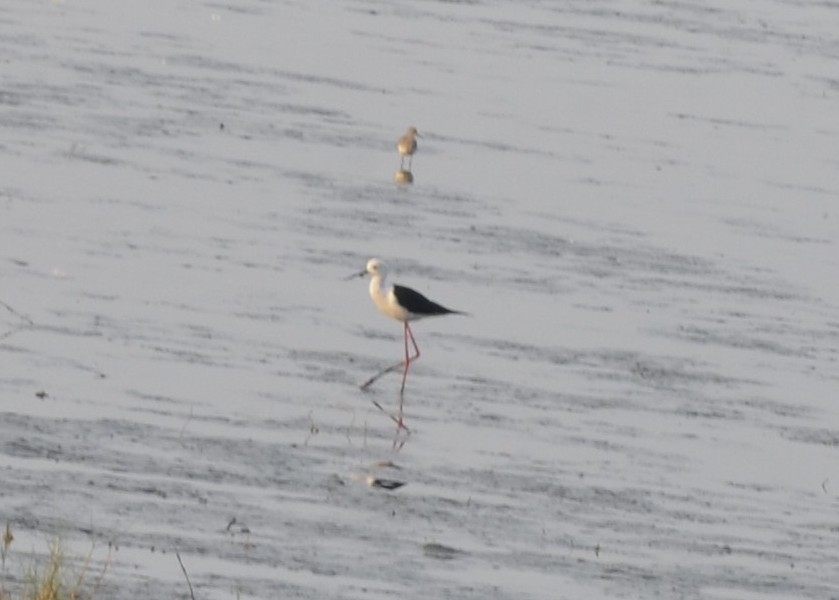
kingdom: Animalia
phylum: Chordata
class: Aves
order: Charadriiformes
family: Recurvirostridae
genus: Himantopus
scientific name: Himantopus himantopus
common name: Black-winged stilt
